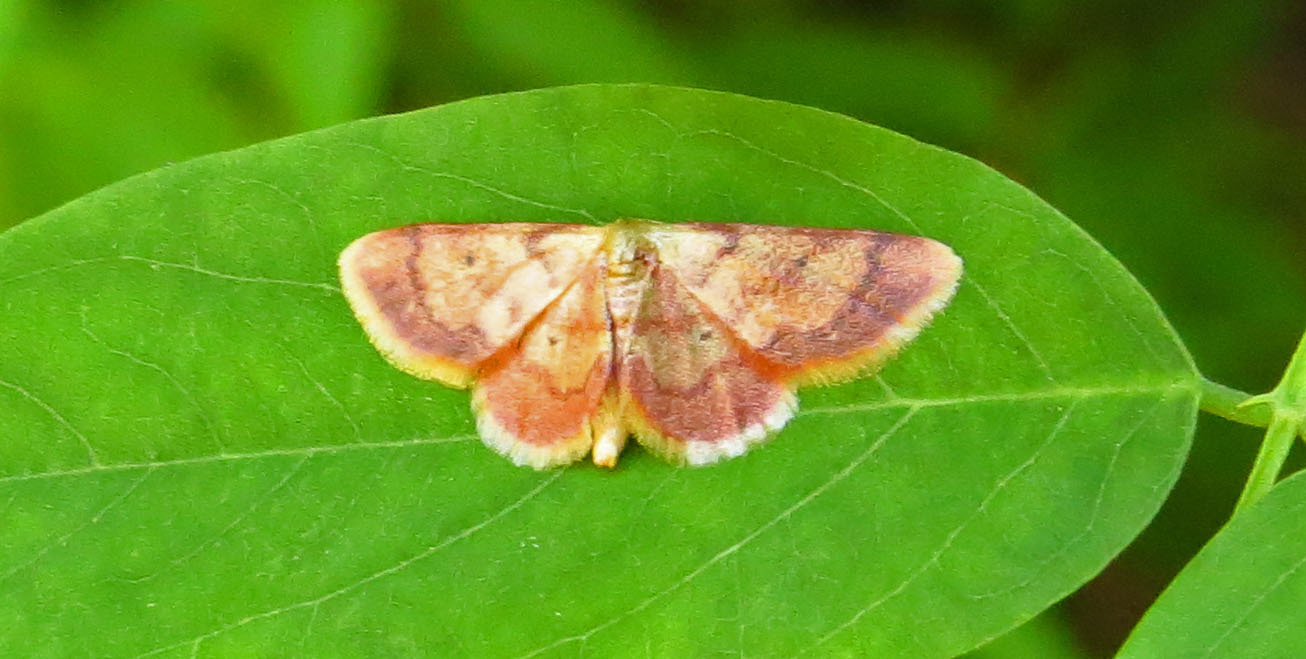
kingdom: Animalia
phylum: Arthropoda
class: Insecta
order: Lepidoptera
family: Geometridae
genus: Idaea
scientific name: Idaea demissaria
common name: Red-bordered wave
